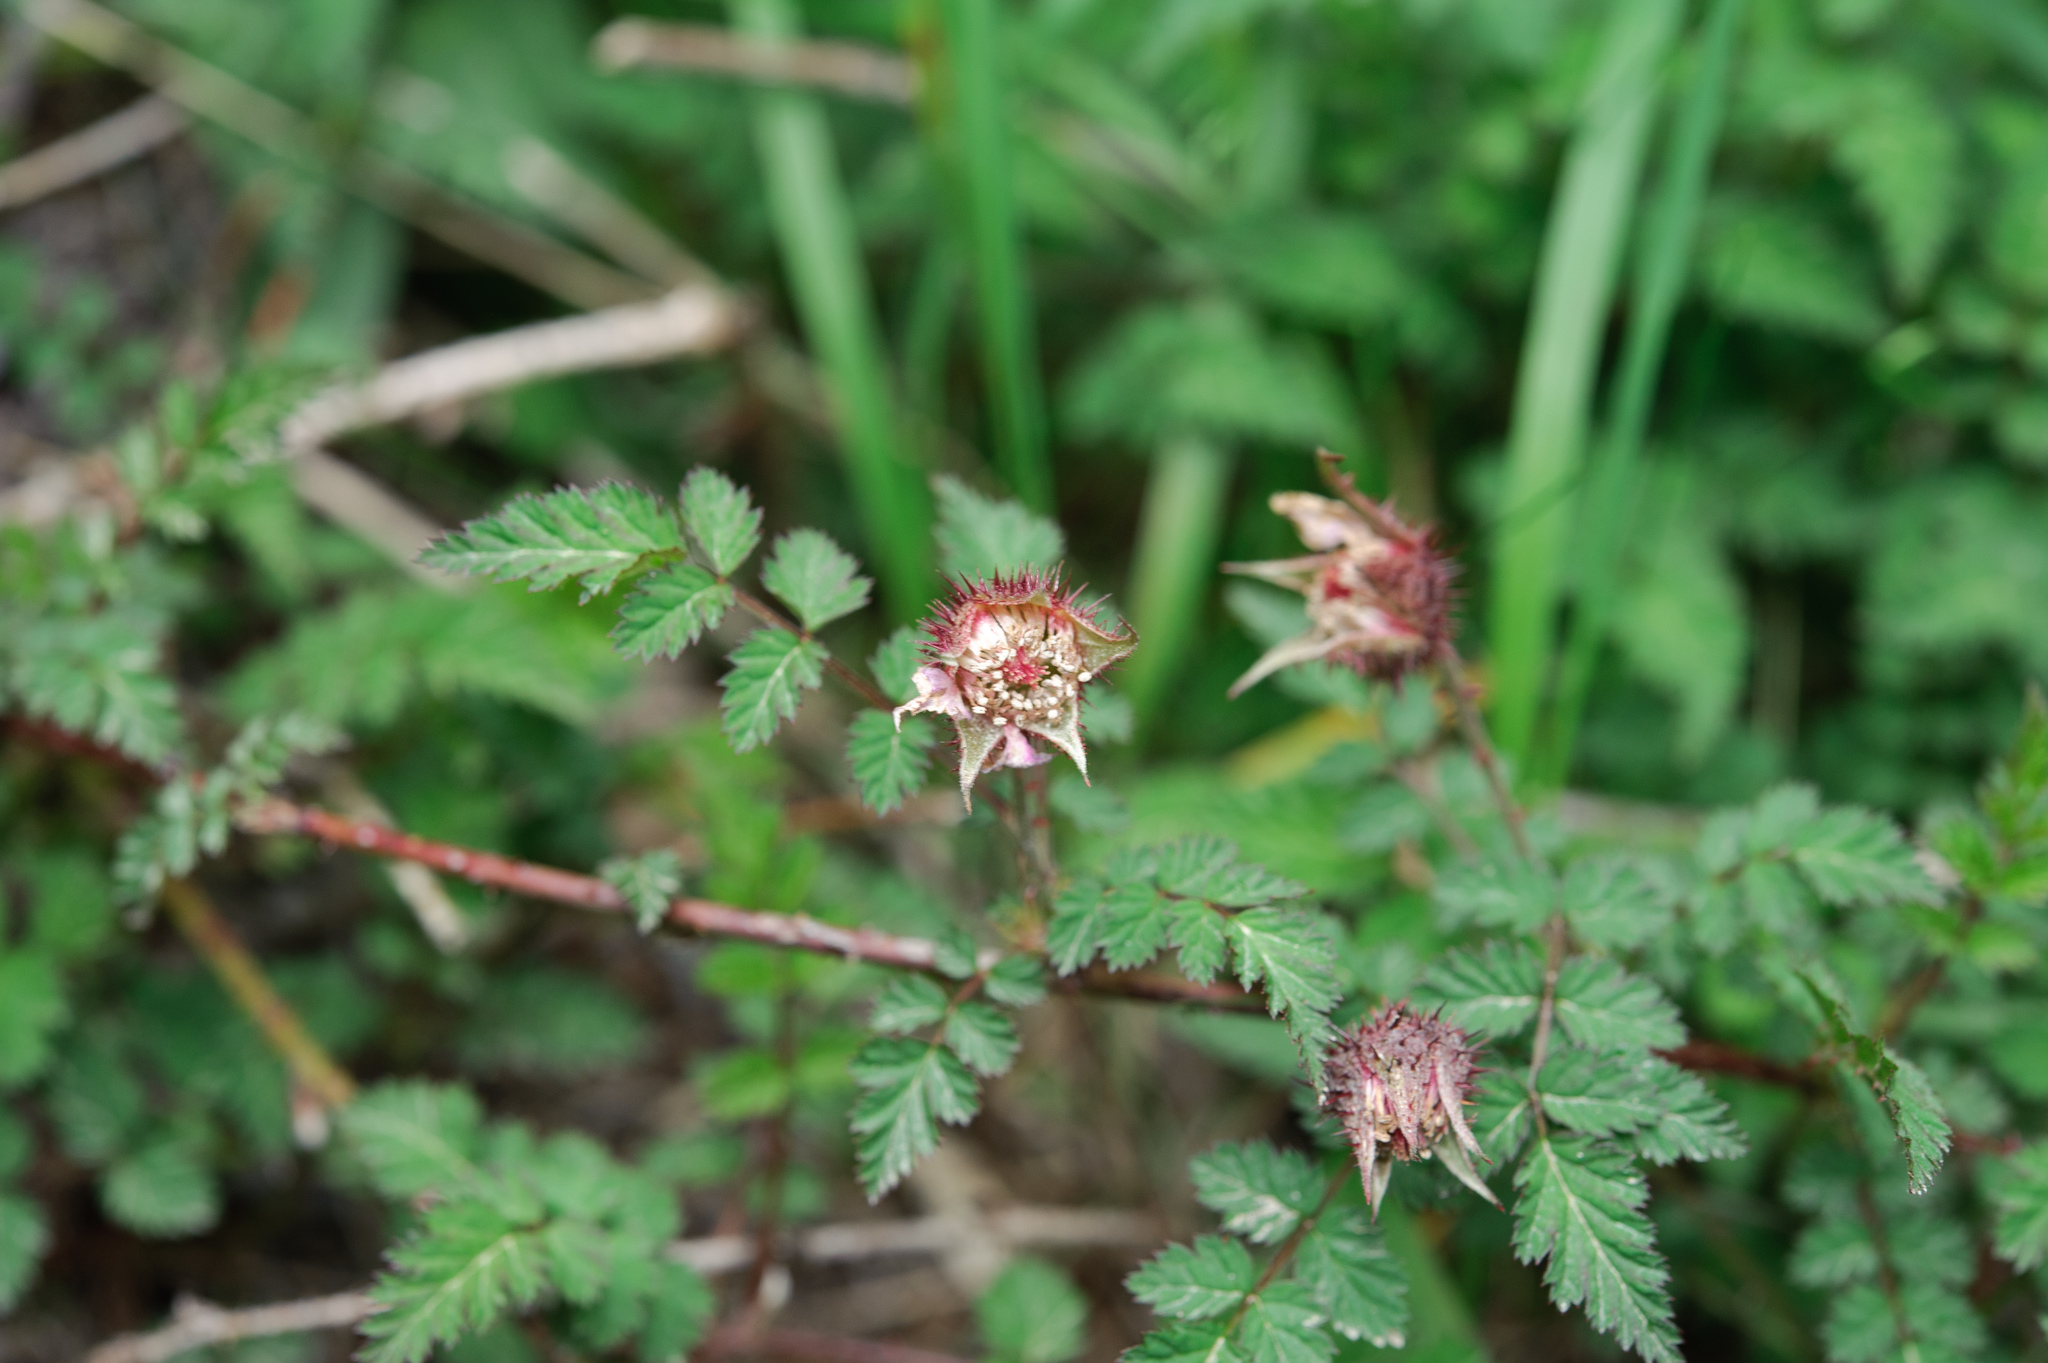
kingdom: Plantae
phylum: Tracheophyta
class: Magnoliopsida
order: Rosales
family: Rosaceae
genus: Rubus
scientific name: Rubus pungens
